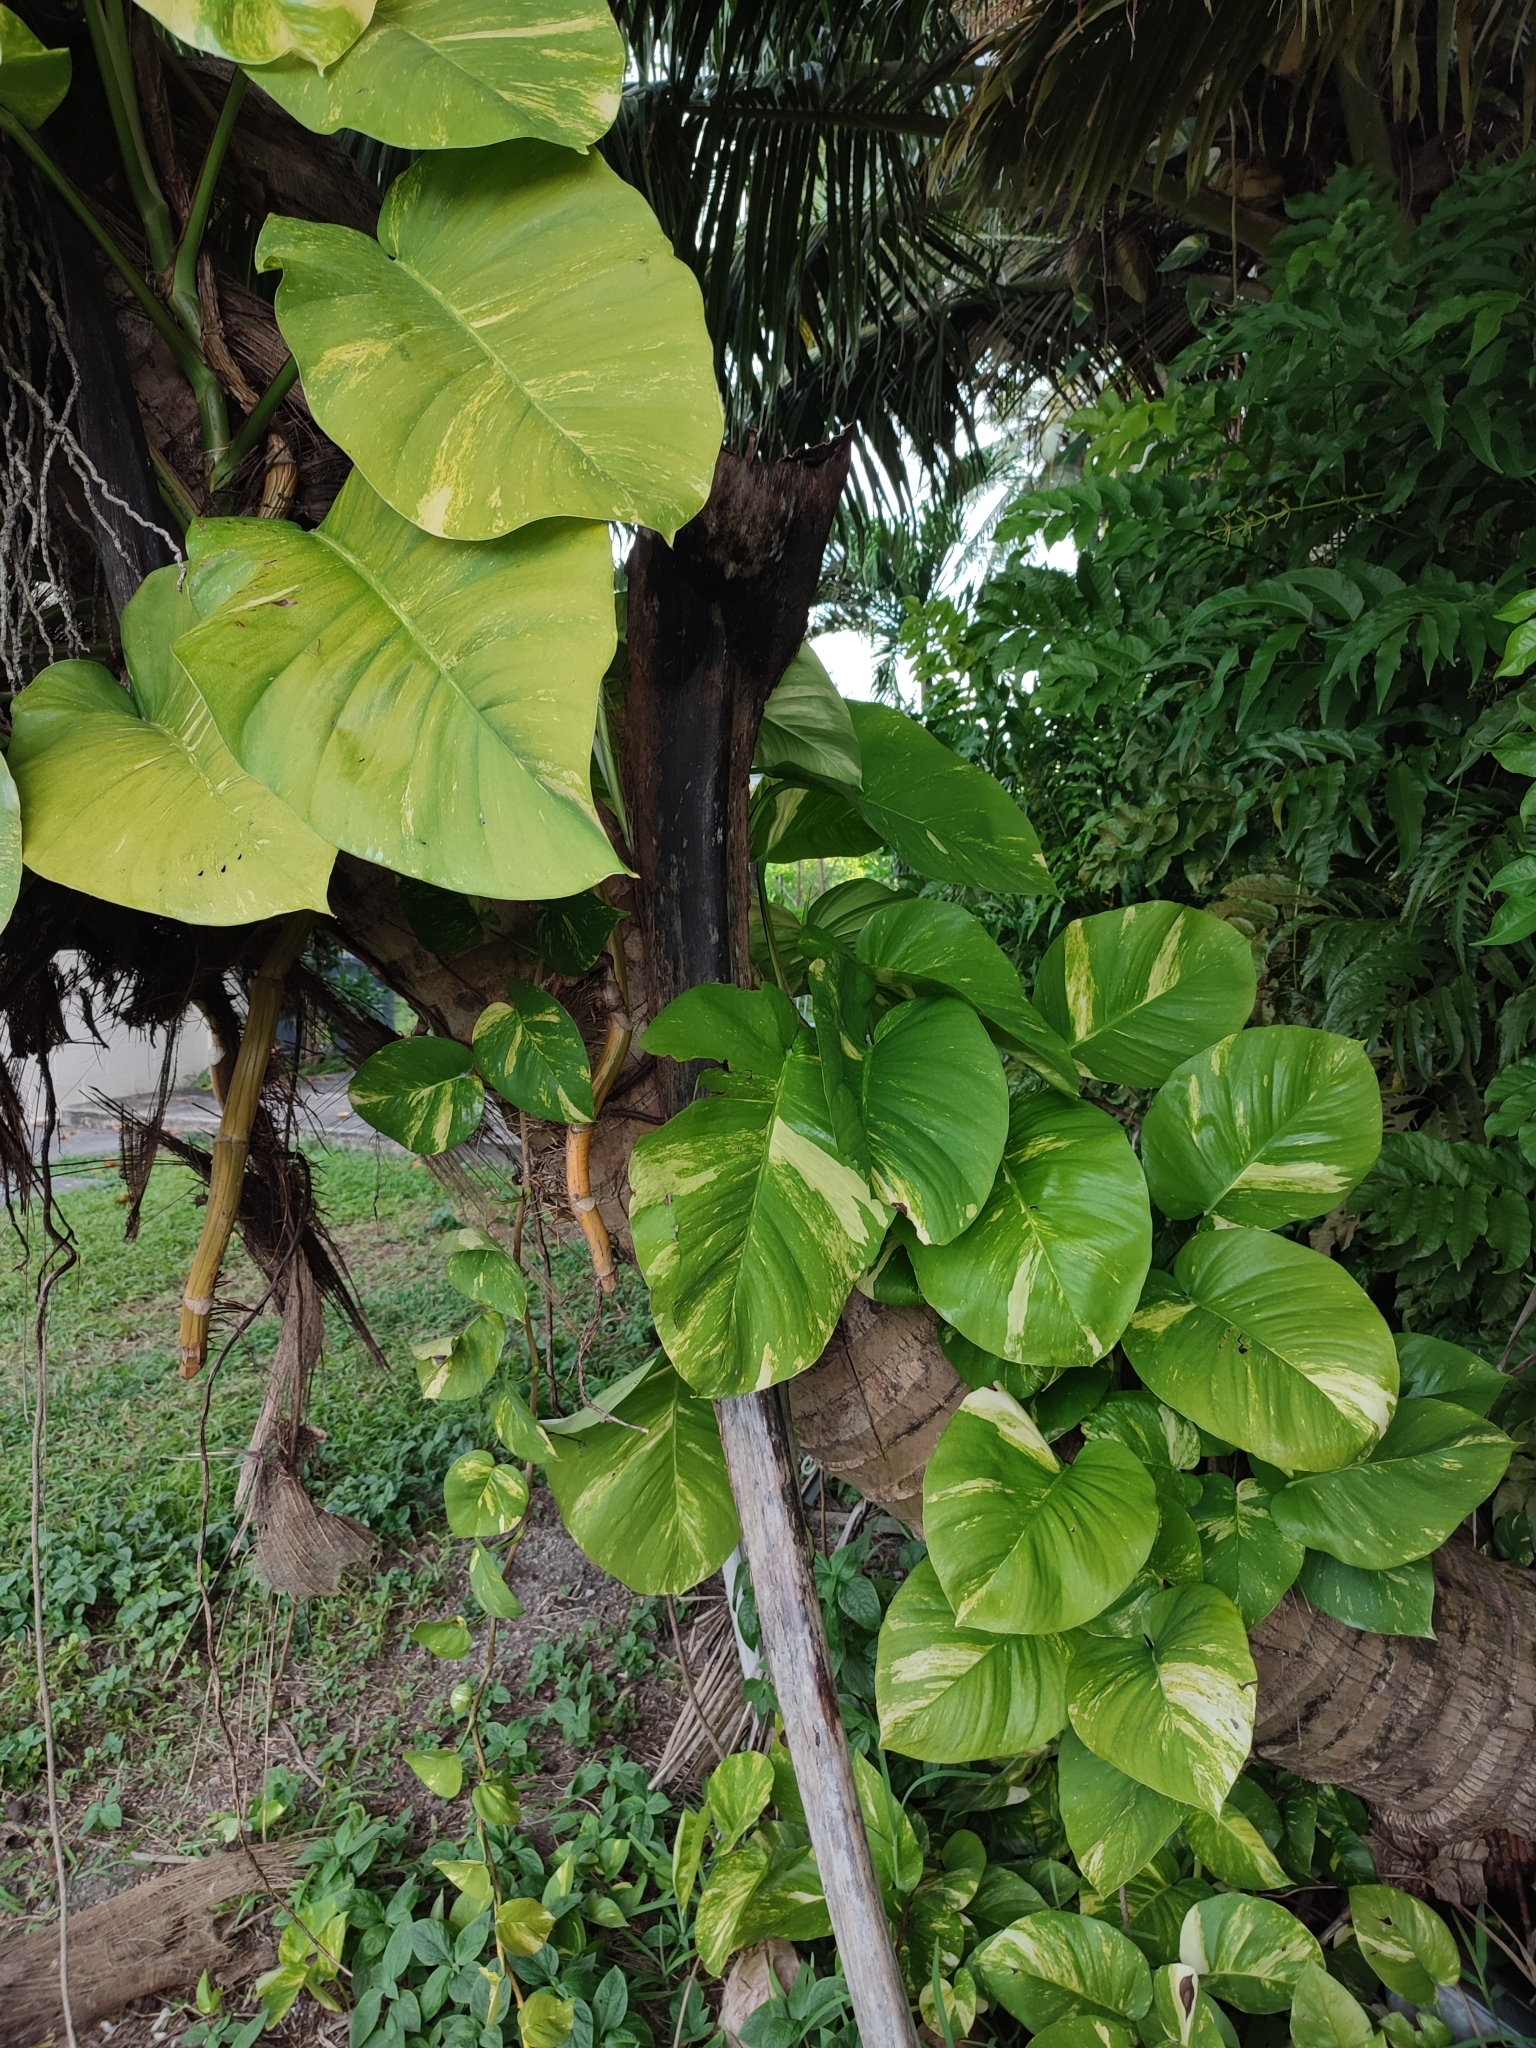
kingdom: Plantae
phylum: Tracheophyta
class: Liliopsida
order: Alismatales
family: Araceae
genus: Epipremnum
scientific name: Epipremnum aureum
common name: Golden hunter's-robe
